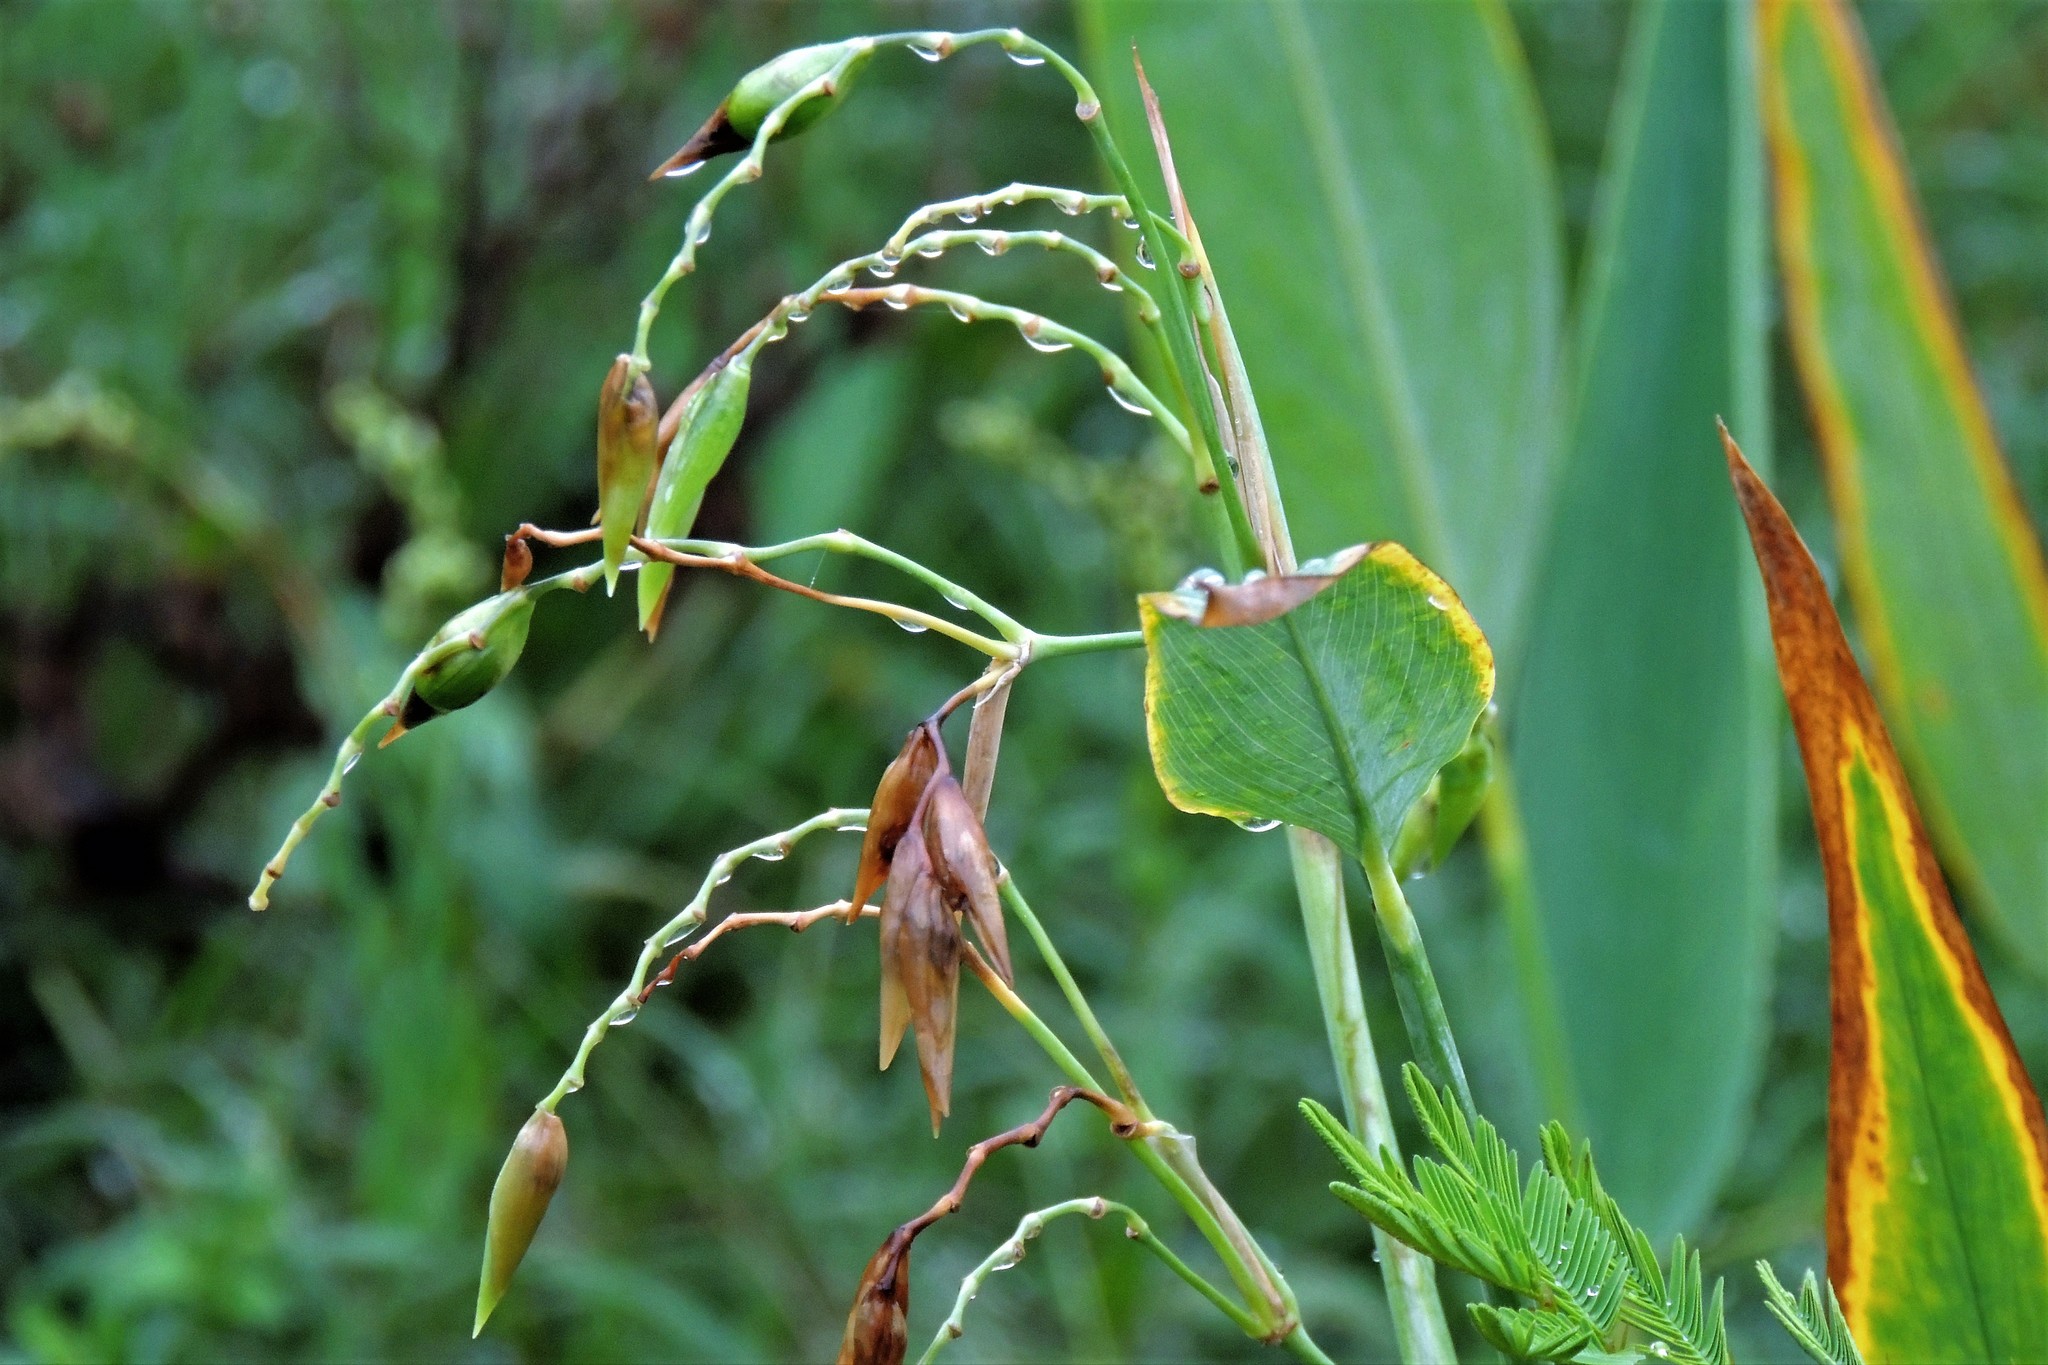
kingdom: Plantae
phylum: Tracheophyta
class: Liliopsida
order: Zingiberales
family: Marantaceae
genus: Thalia
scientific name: Thalia geniculata
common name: Arrowroot
